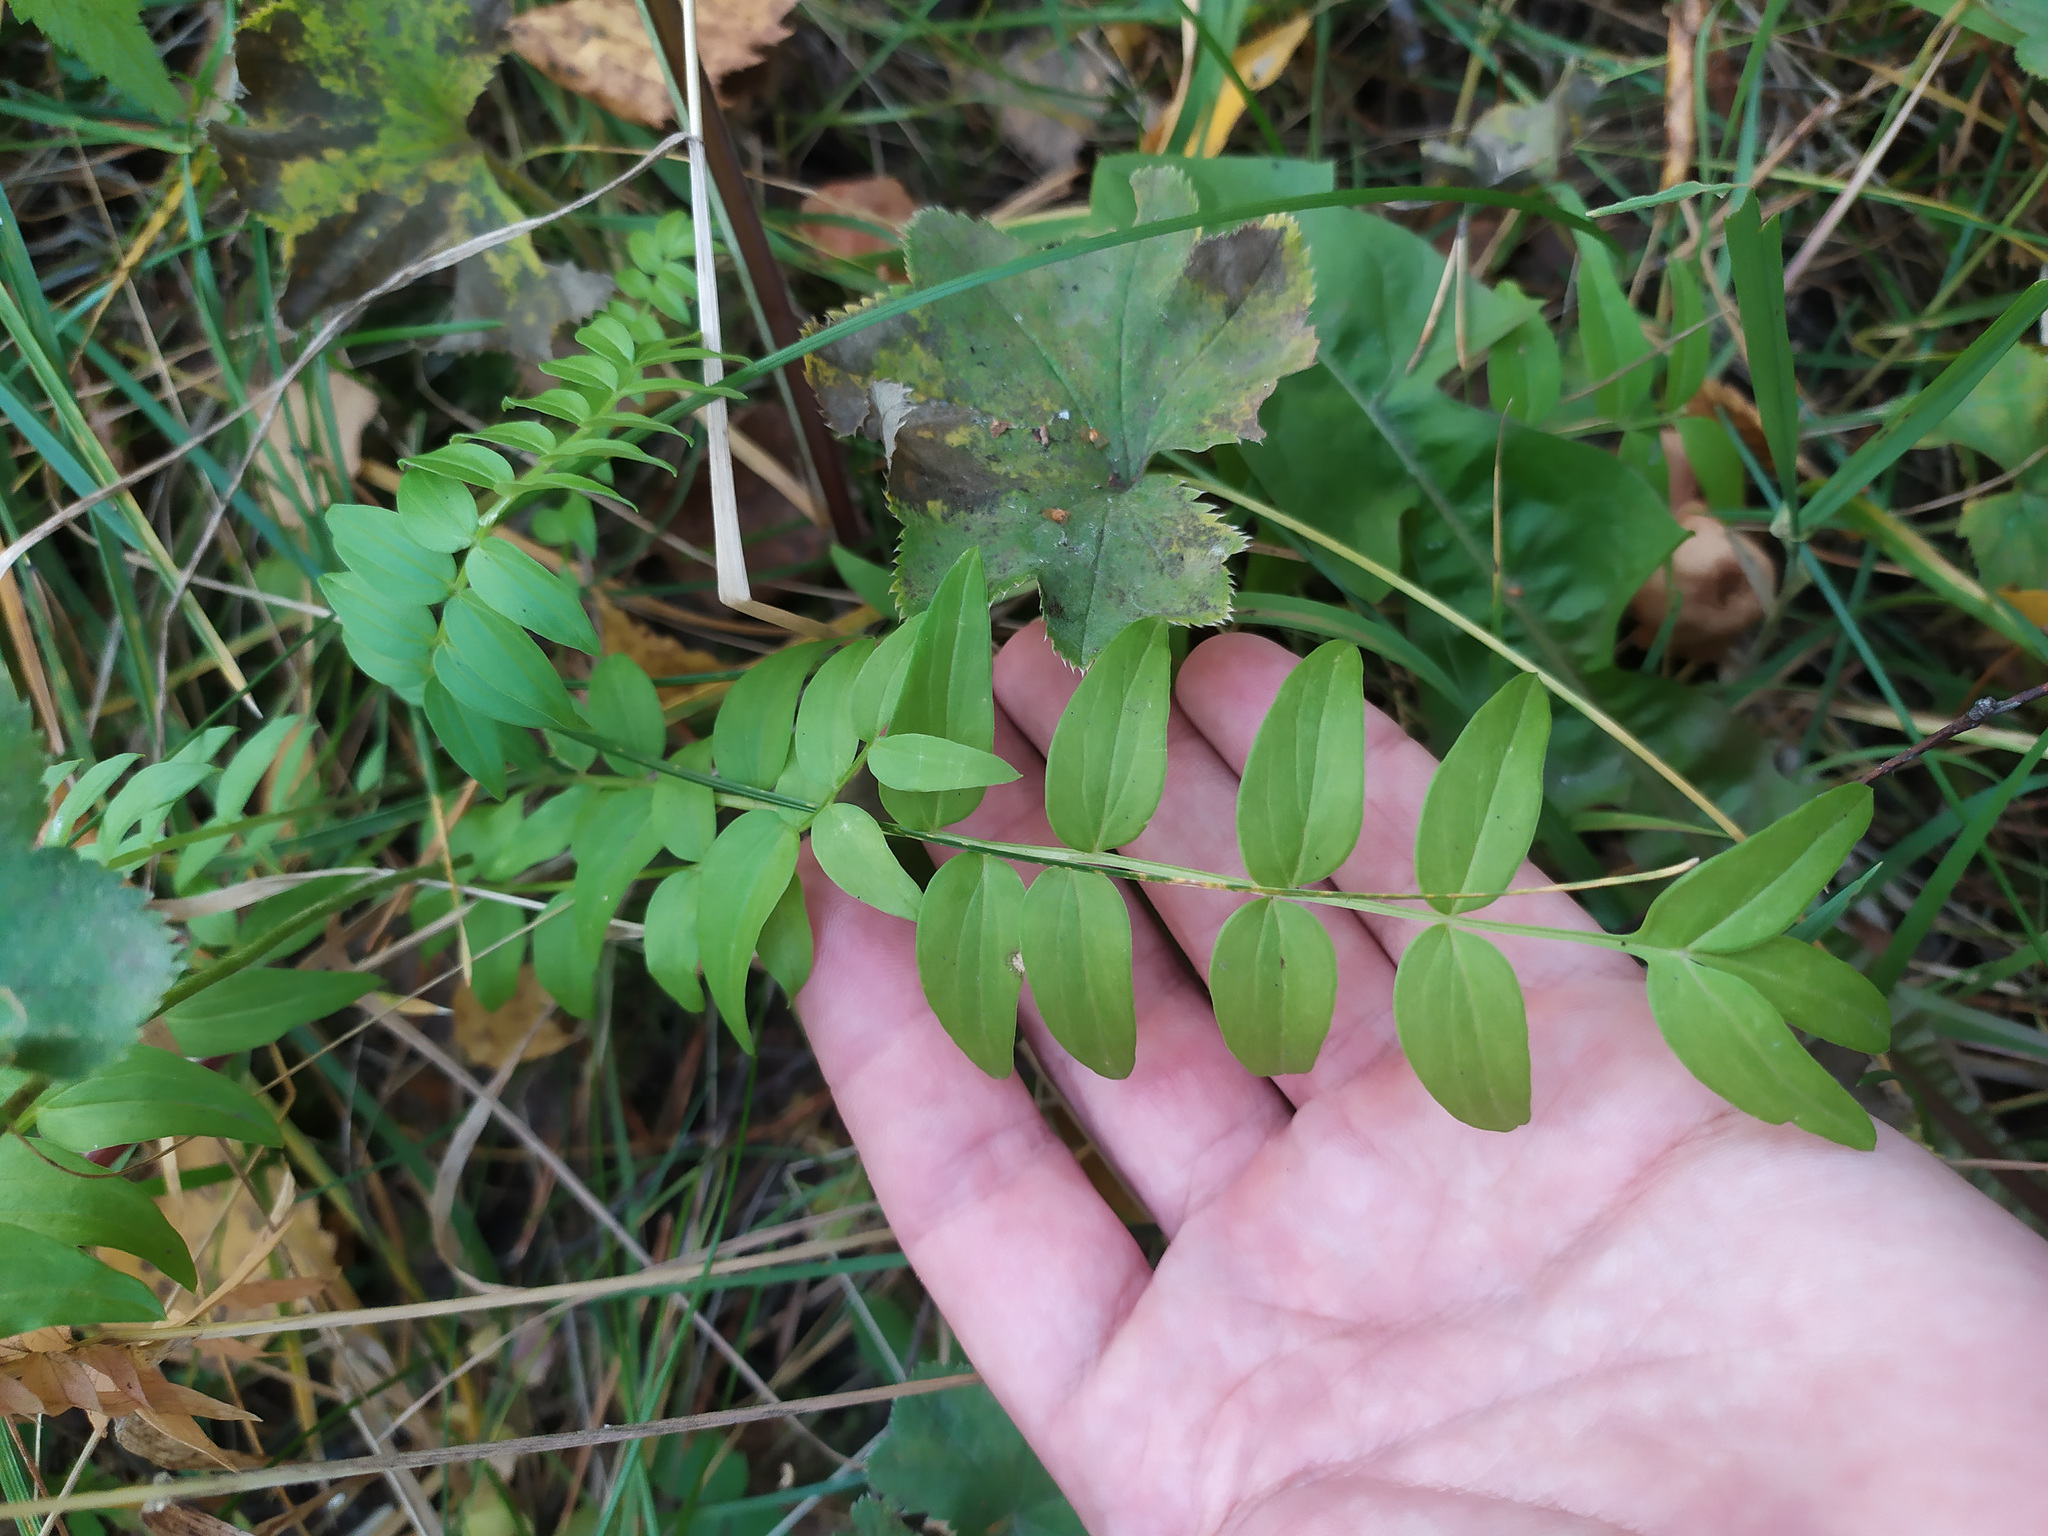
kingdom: Plantae
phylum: Tracheophyta
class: Magnoliopsida
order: Ericales
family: Polemoniaceae
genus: Polemonium
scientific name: Polemonium caeruleum
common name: Jacob's-ladder
